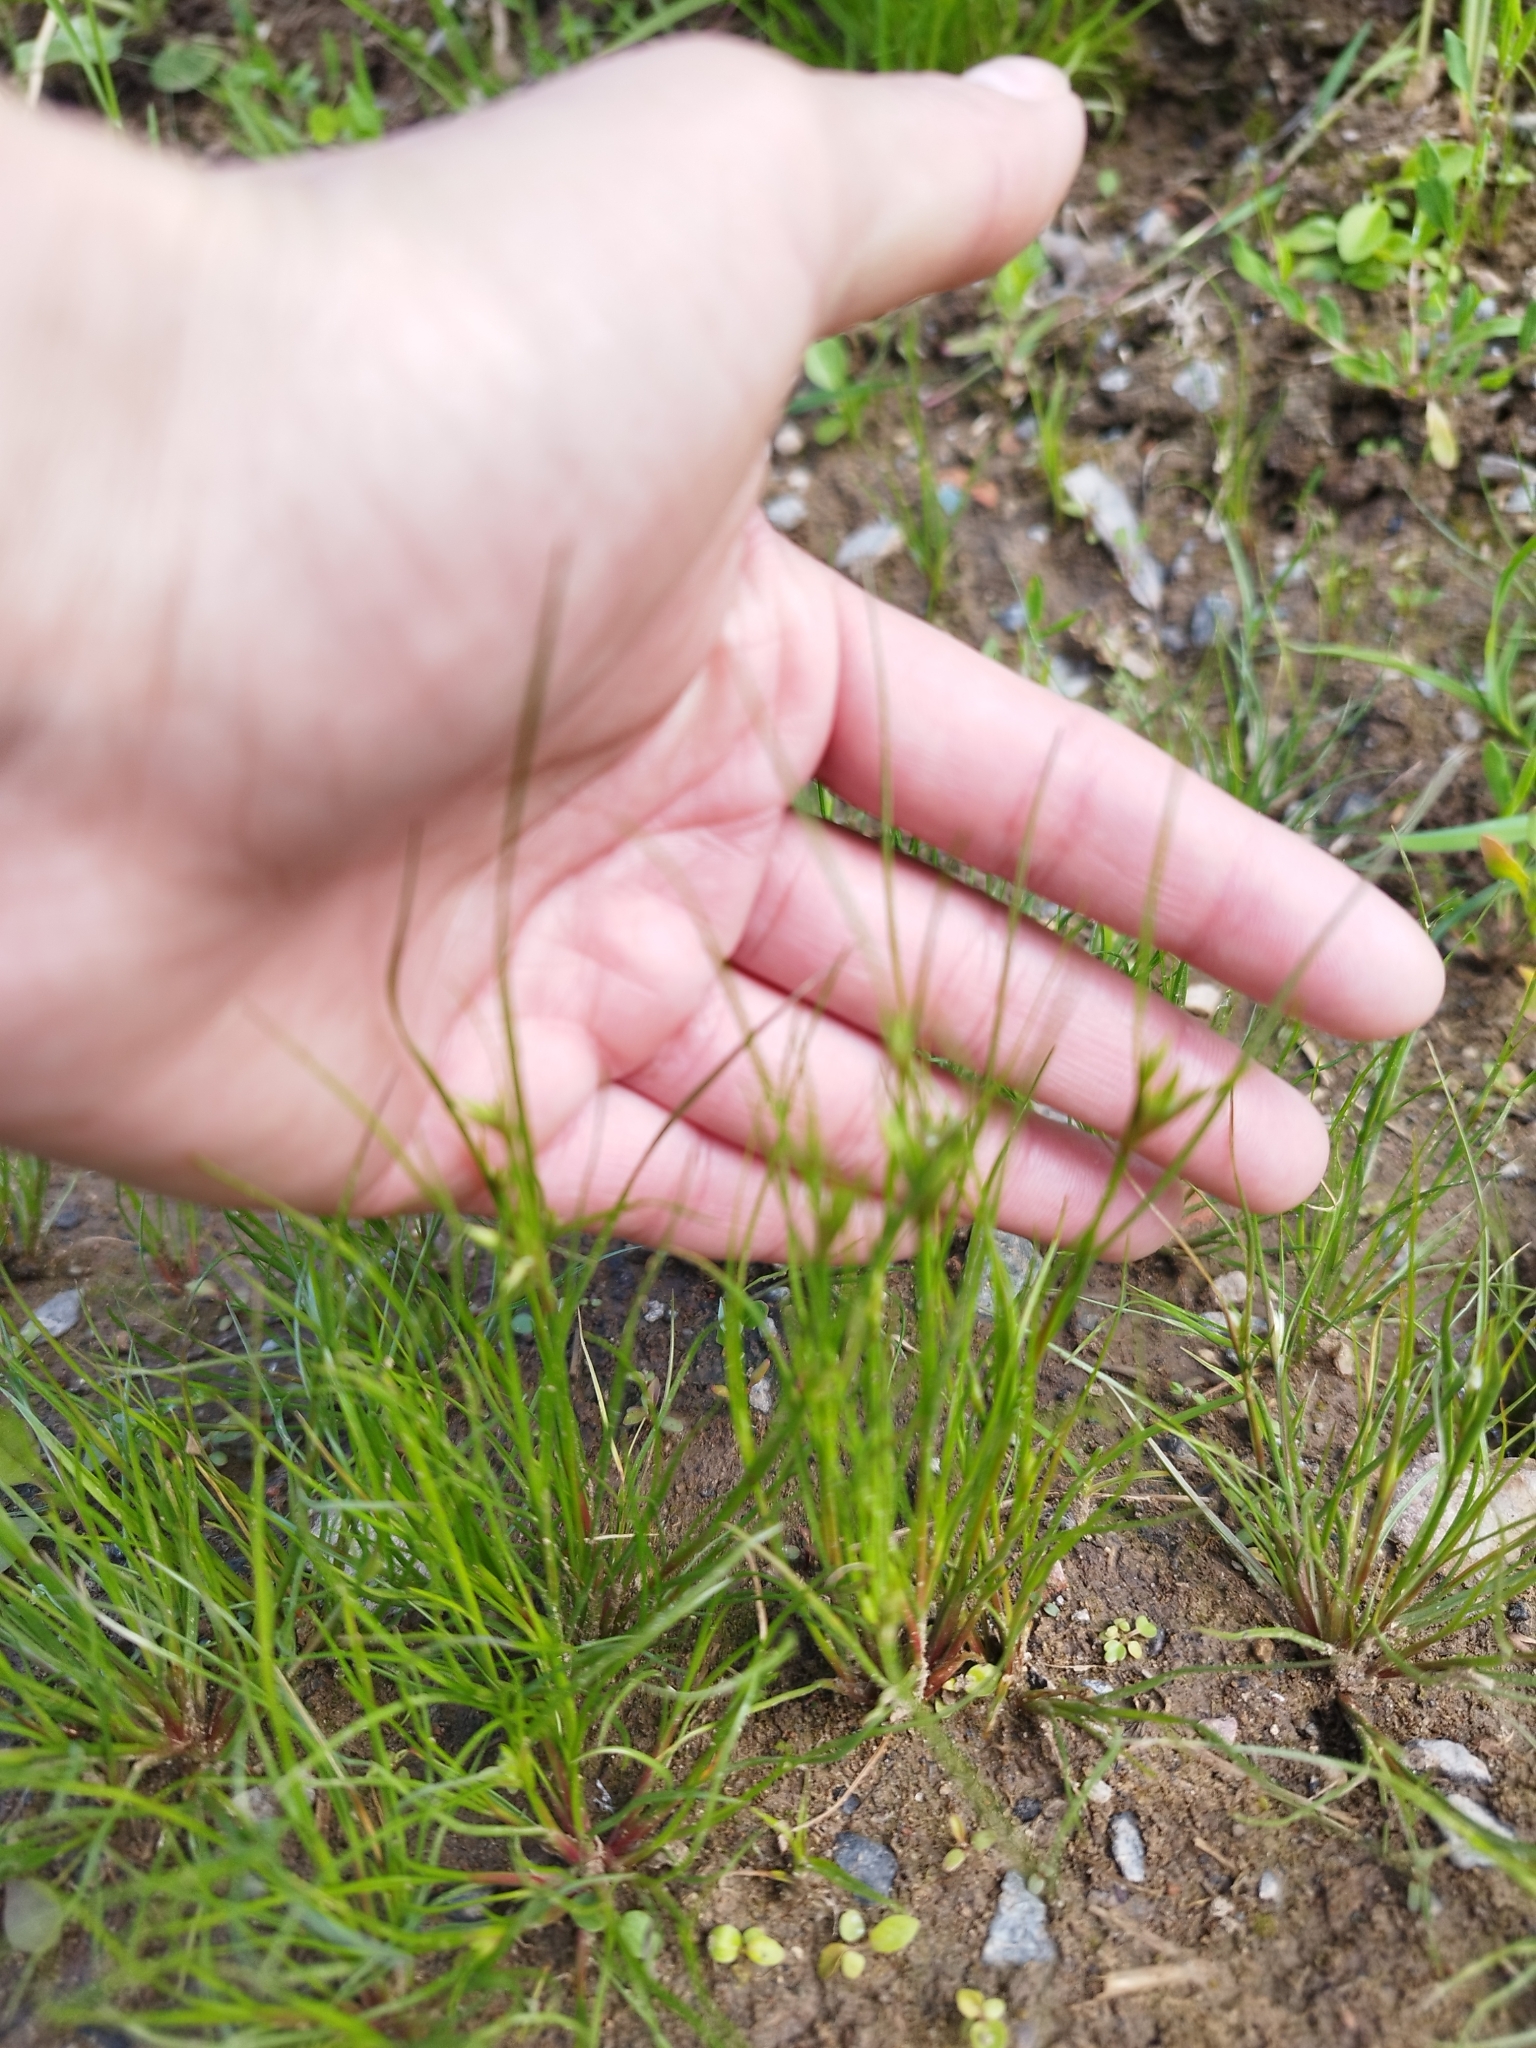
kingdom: Plantae
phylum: Tracheophyta
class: Liliopsida
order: Poales
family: Juncaceae
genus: Juncus
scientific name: Juncus bufonius
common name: Toad rush
